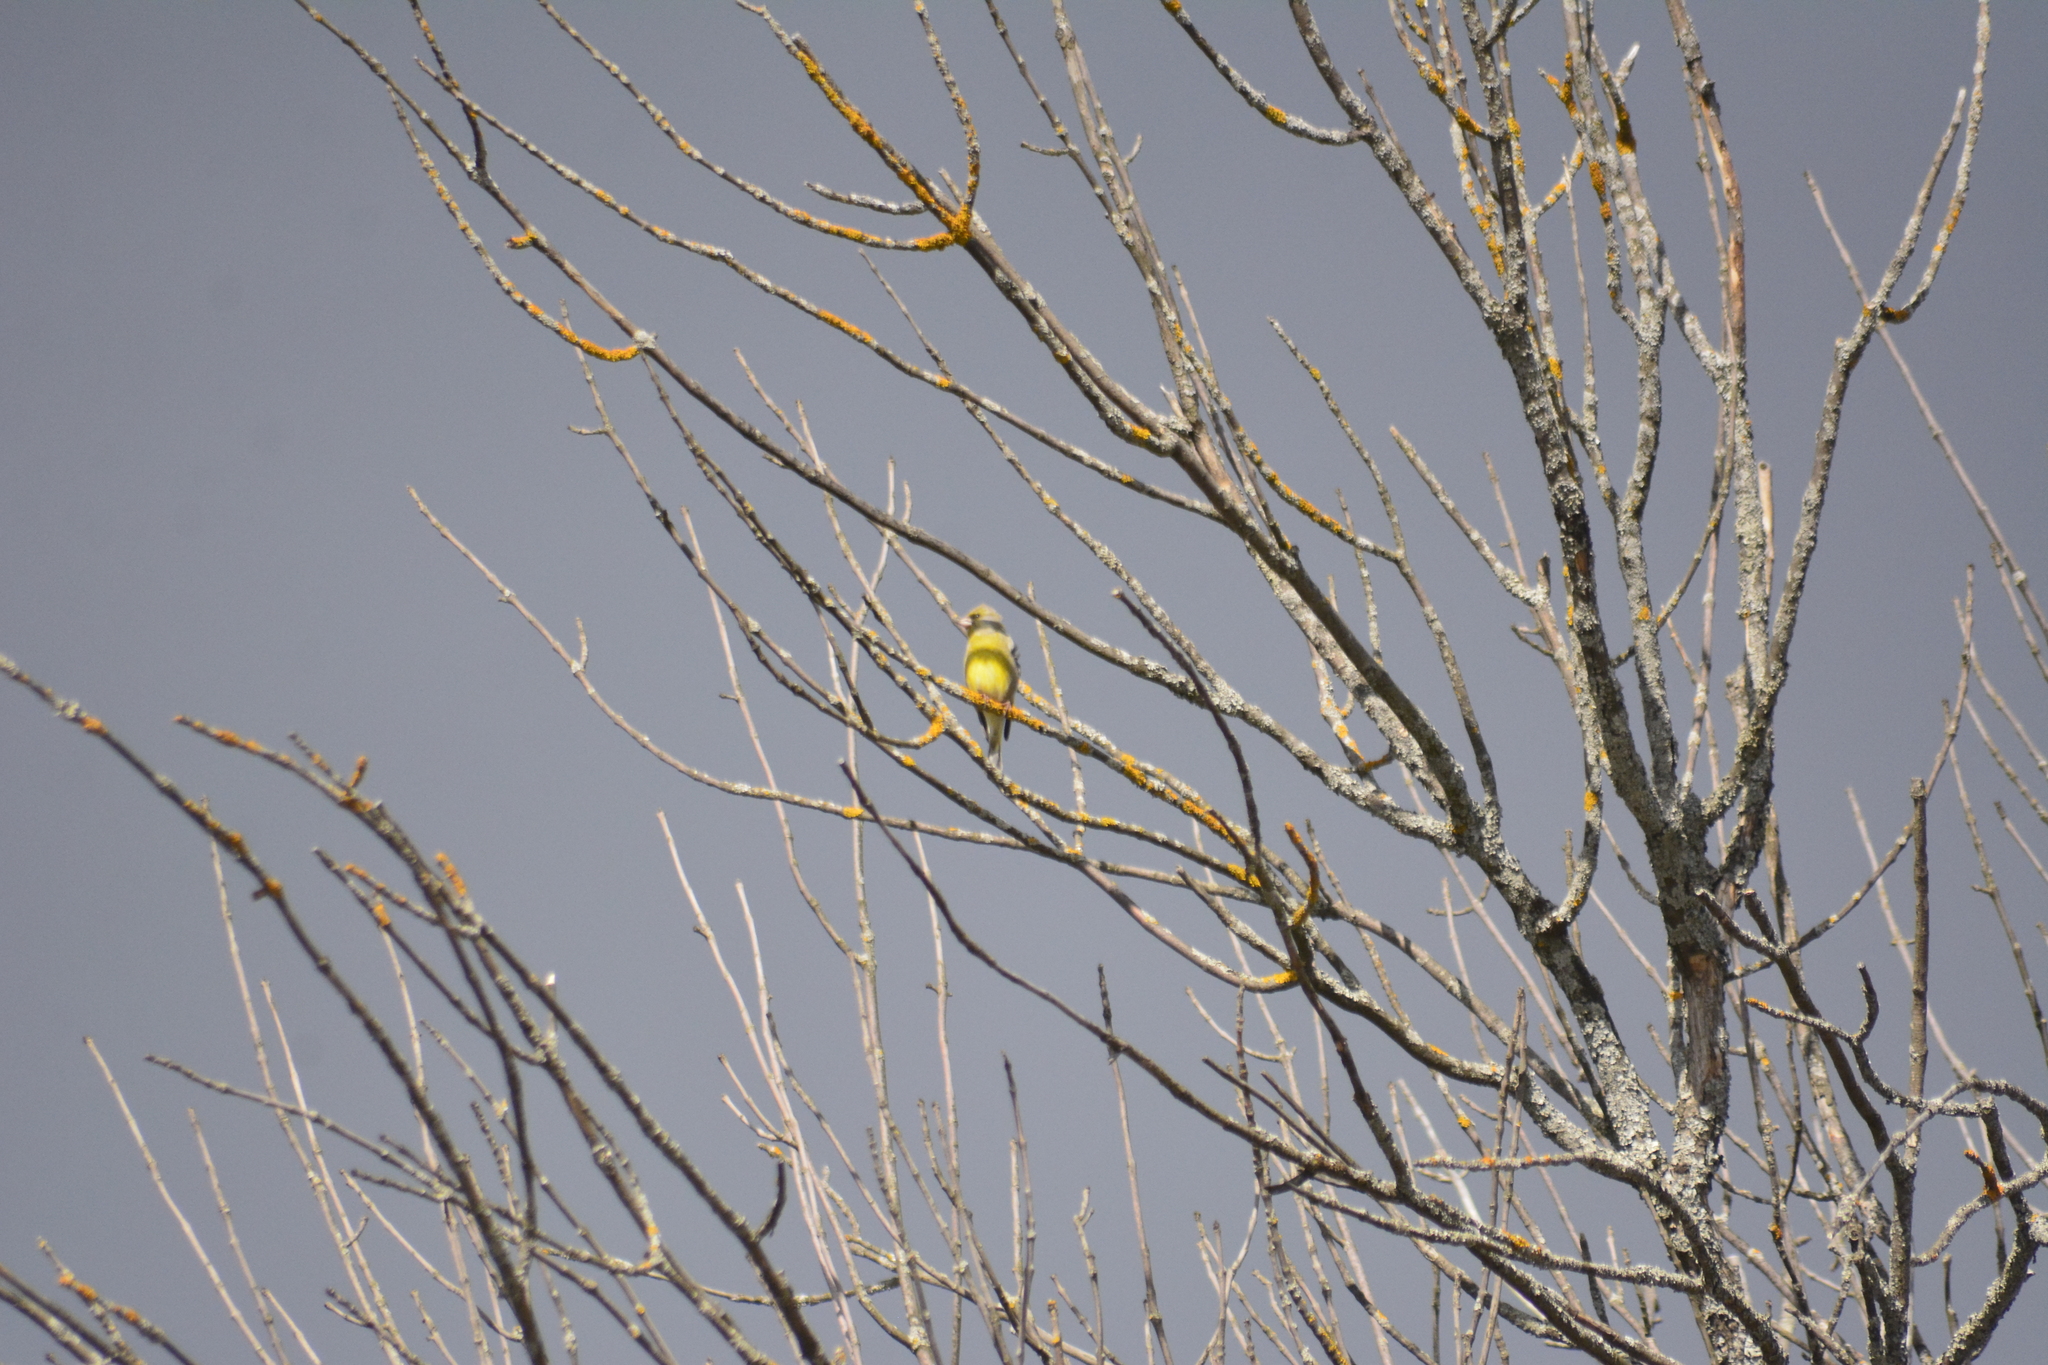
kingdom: Plantae
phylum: Tracheophyta
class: Liliopsida
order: Poales
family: Poaceae
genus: Chloris
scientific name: Chloris chloris
